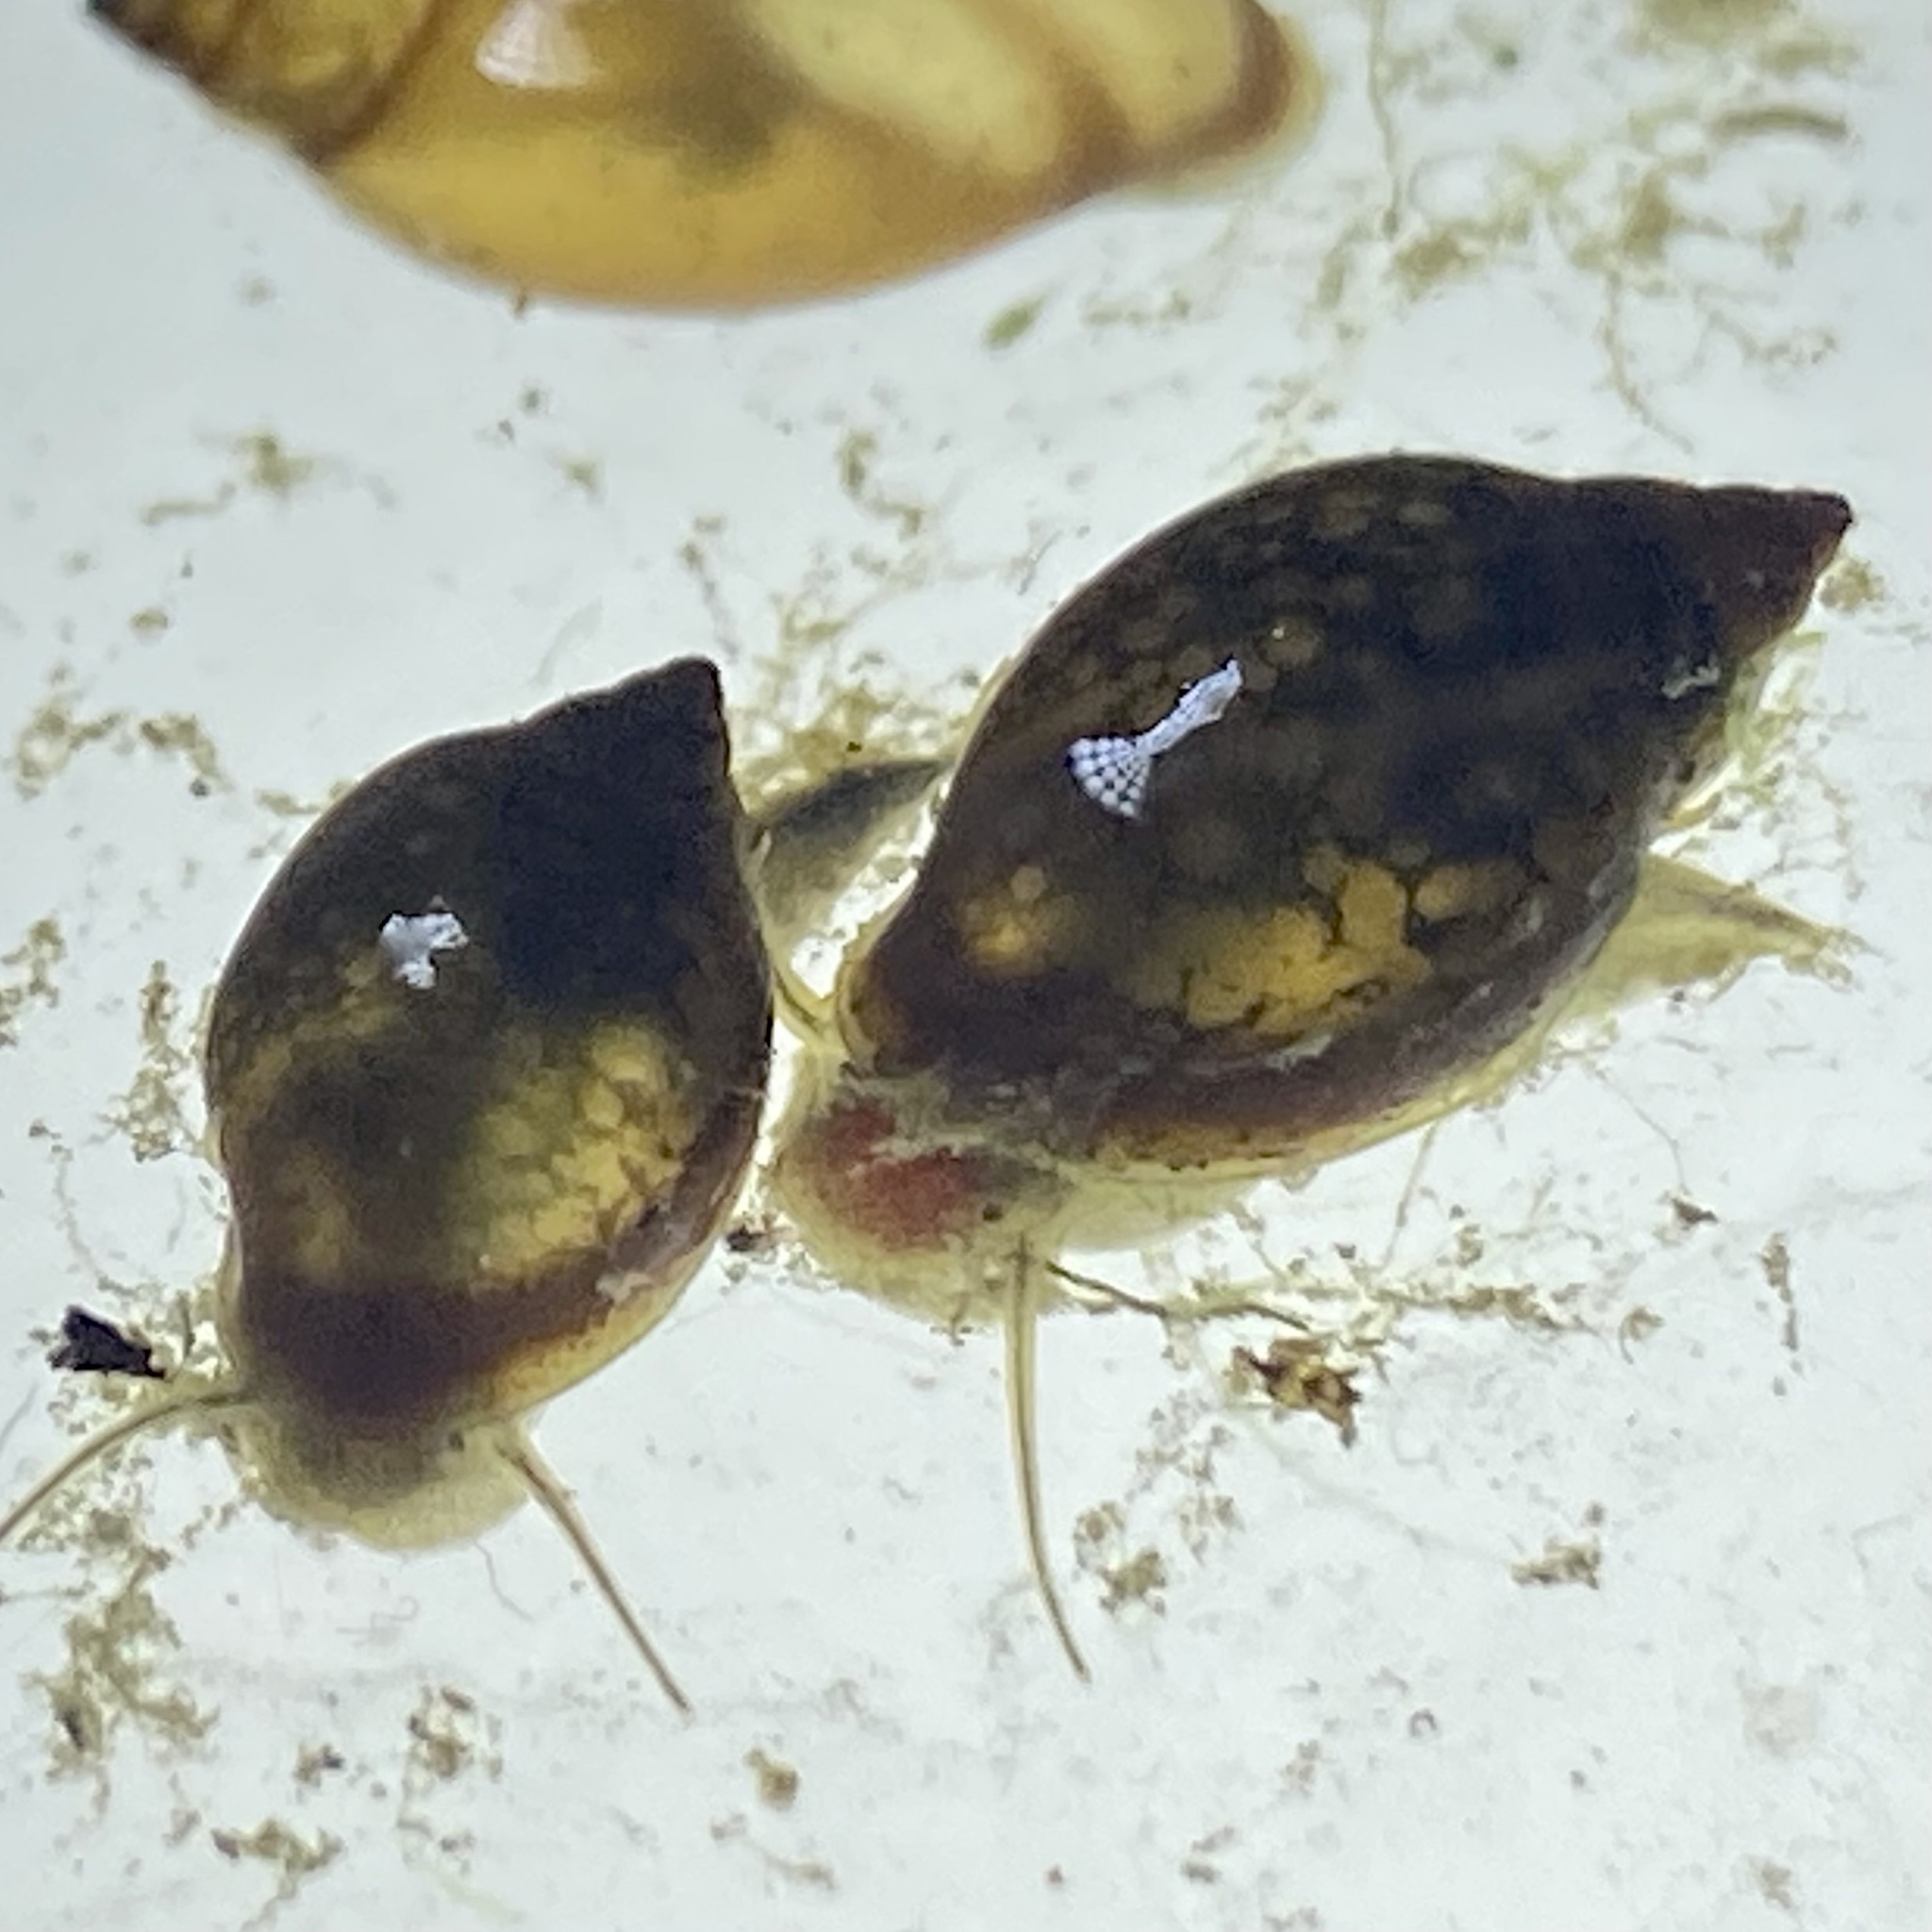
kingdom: Animalia
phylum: Mollusca
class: Gastropoda
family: Physidae
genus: Physella
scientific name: Physella acuta
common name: European physa
